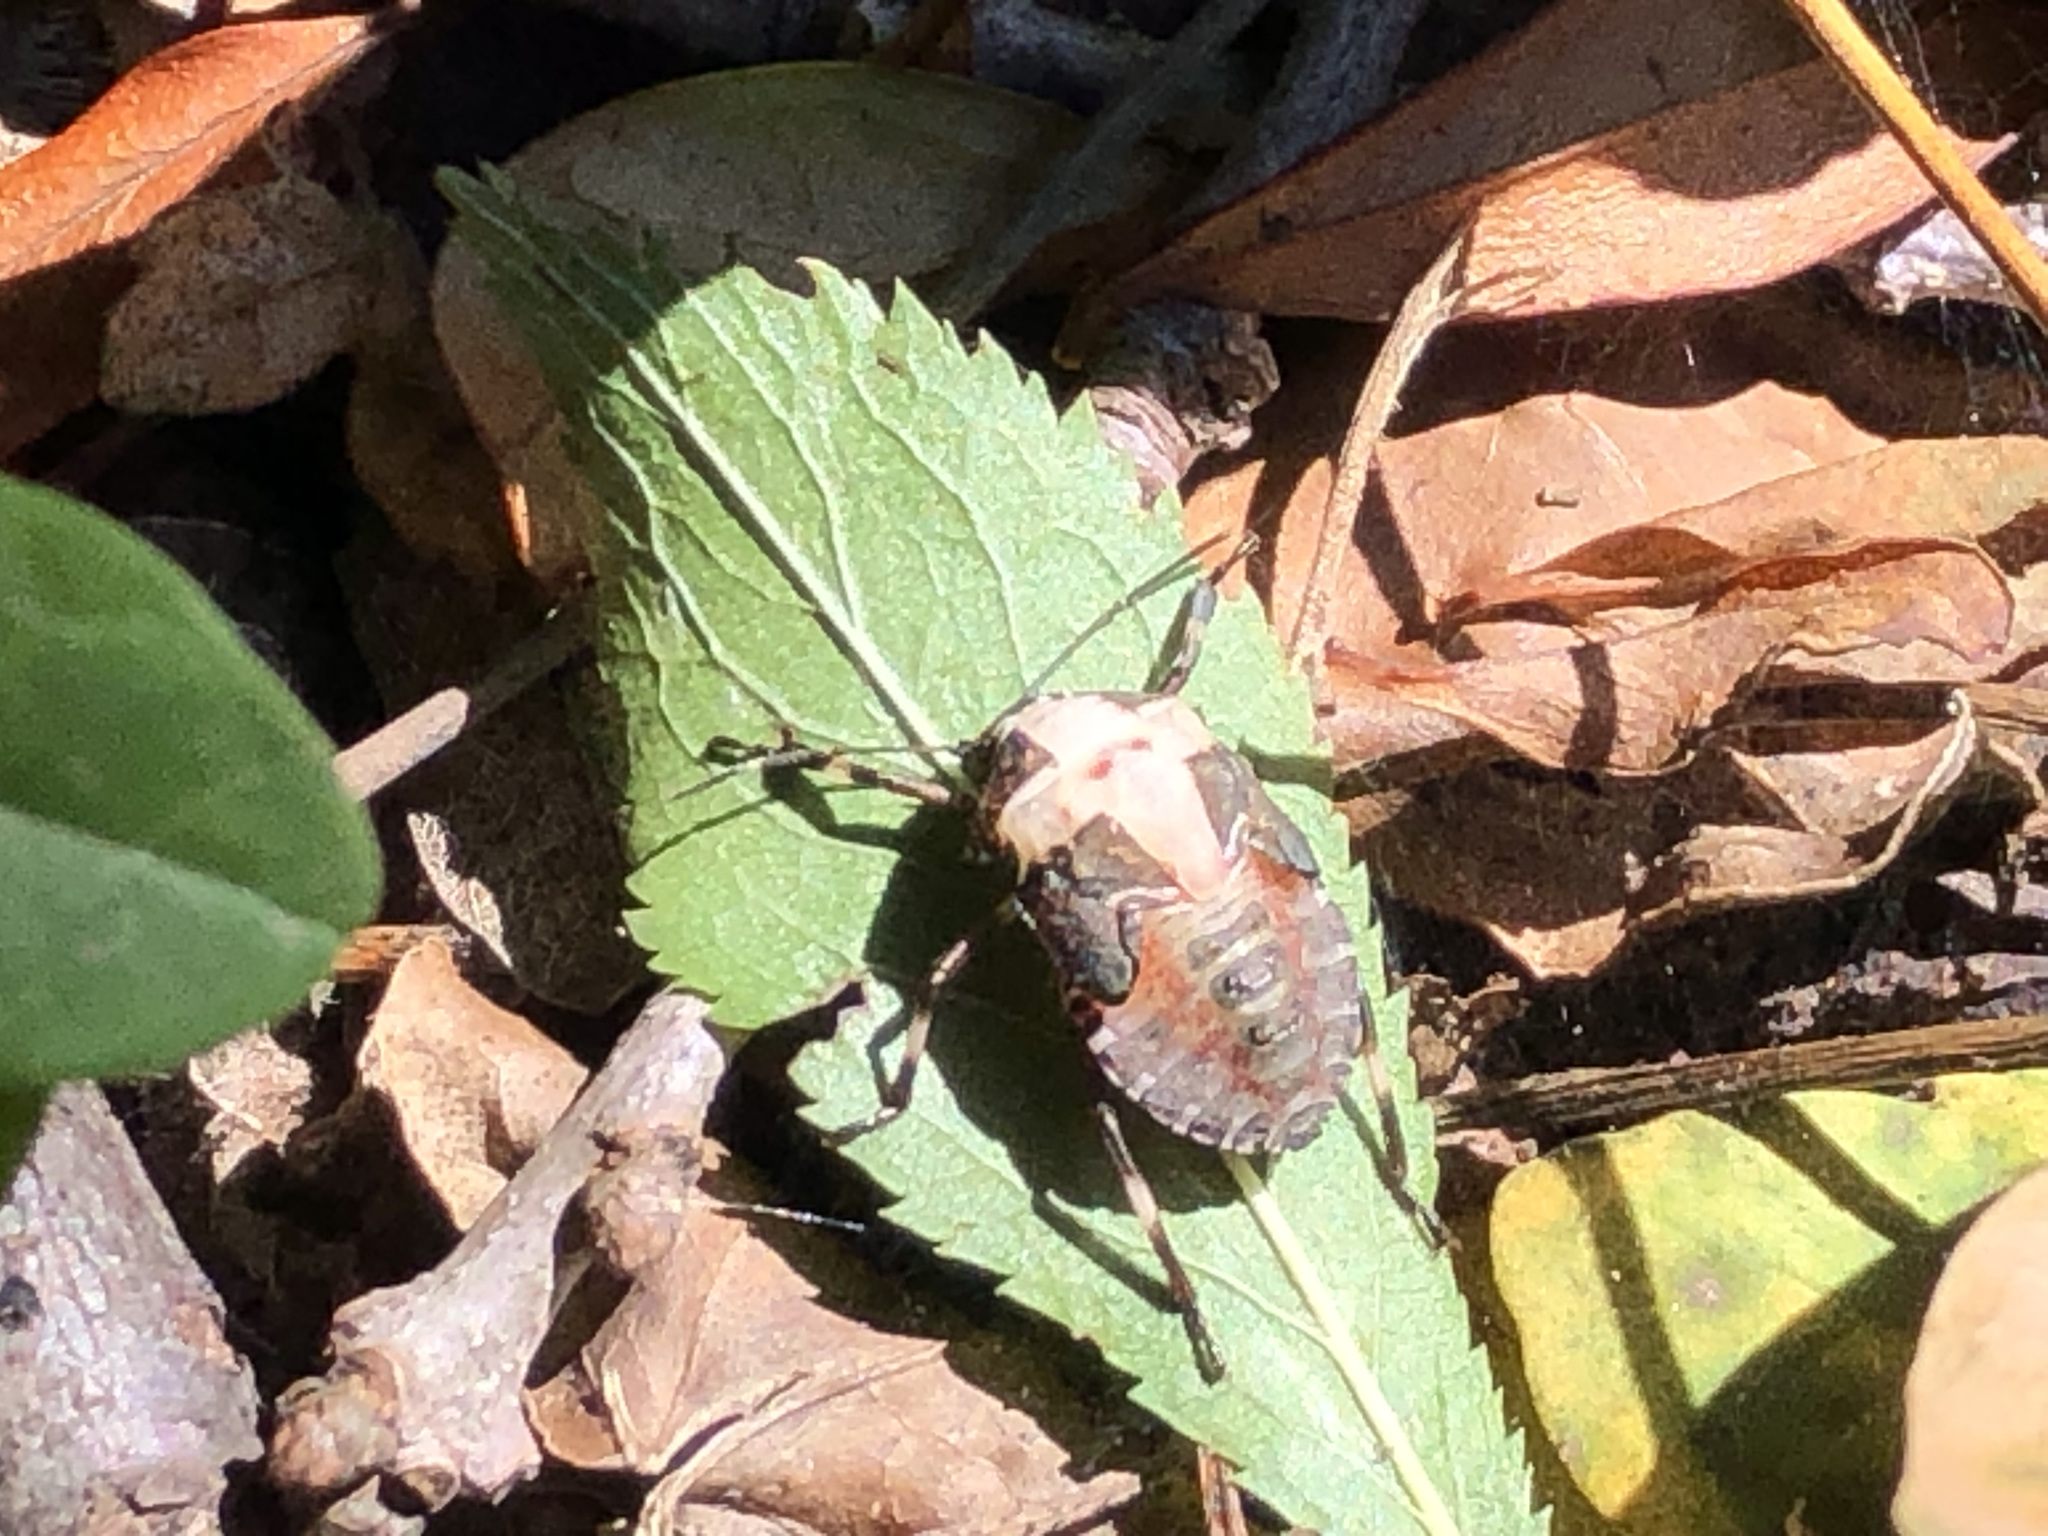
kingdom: Animalia
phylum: Arthropoda
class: Insecta
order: Hemiptera
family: Pentatomidae
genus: Halyomorpha
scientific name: Halyomorpha halys
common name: Brown marmorated stink bug
